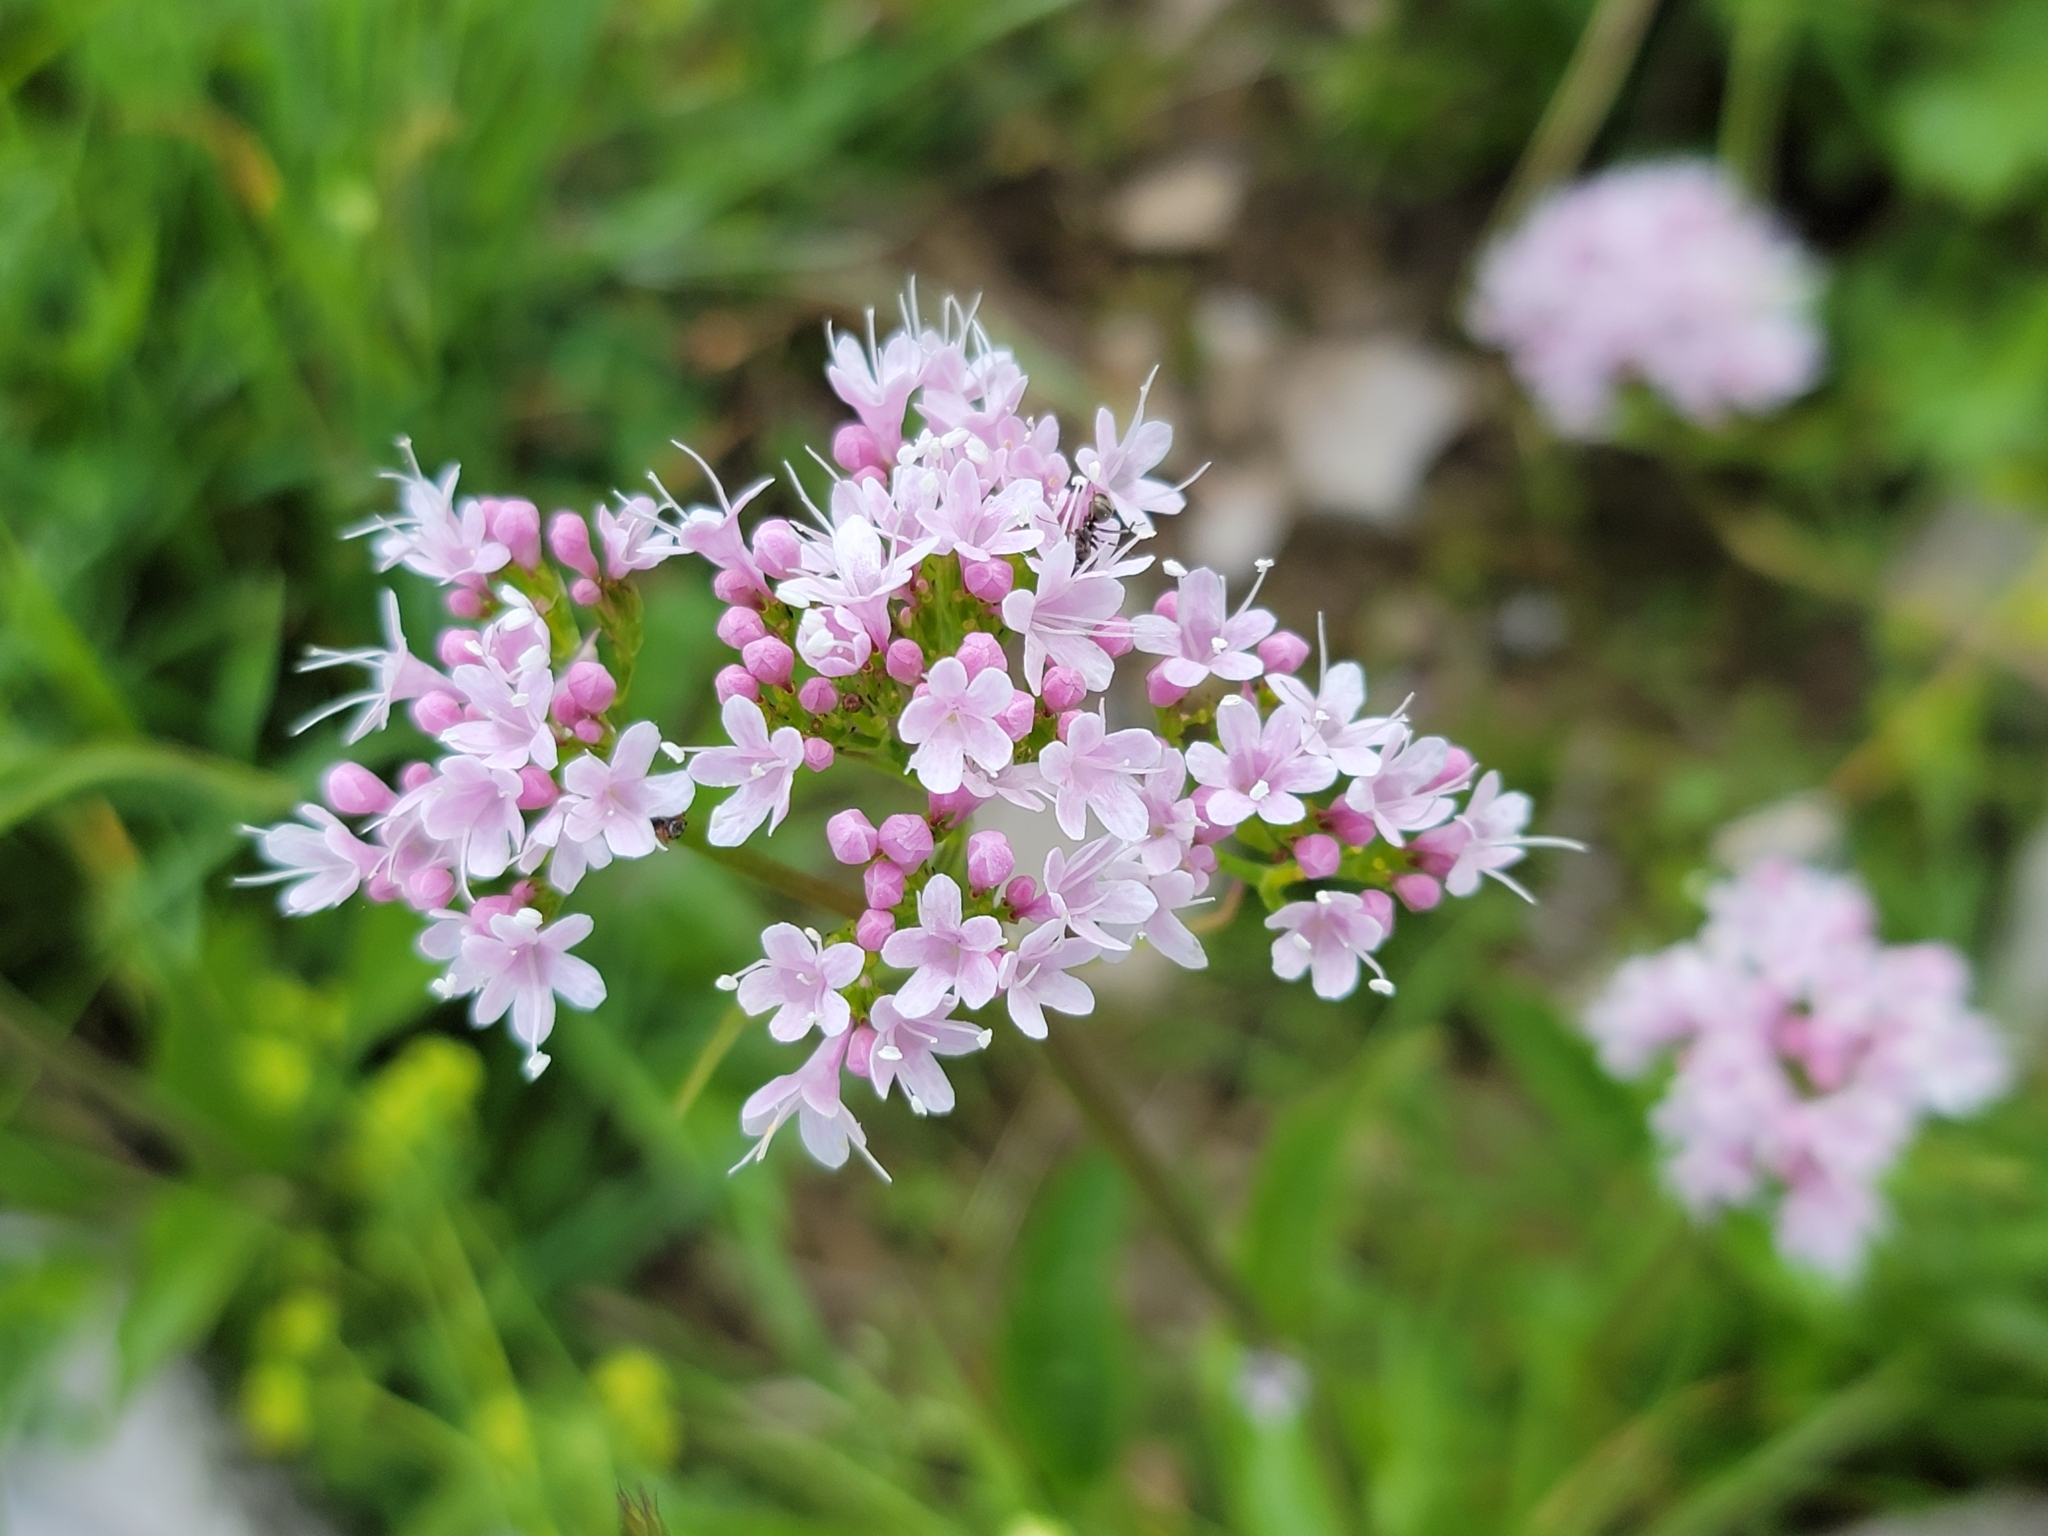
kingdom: Plantae
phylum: Tracheophyta
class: Magnoliopsida
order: Dipsacales
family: Caprifoliaceae
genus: Valeriana
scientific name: Valeriana montana
